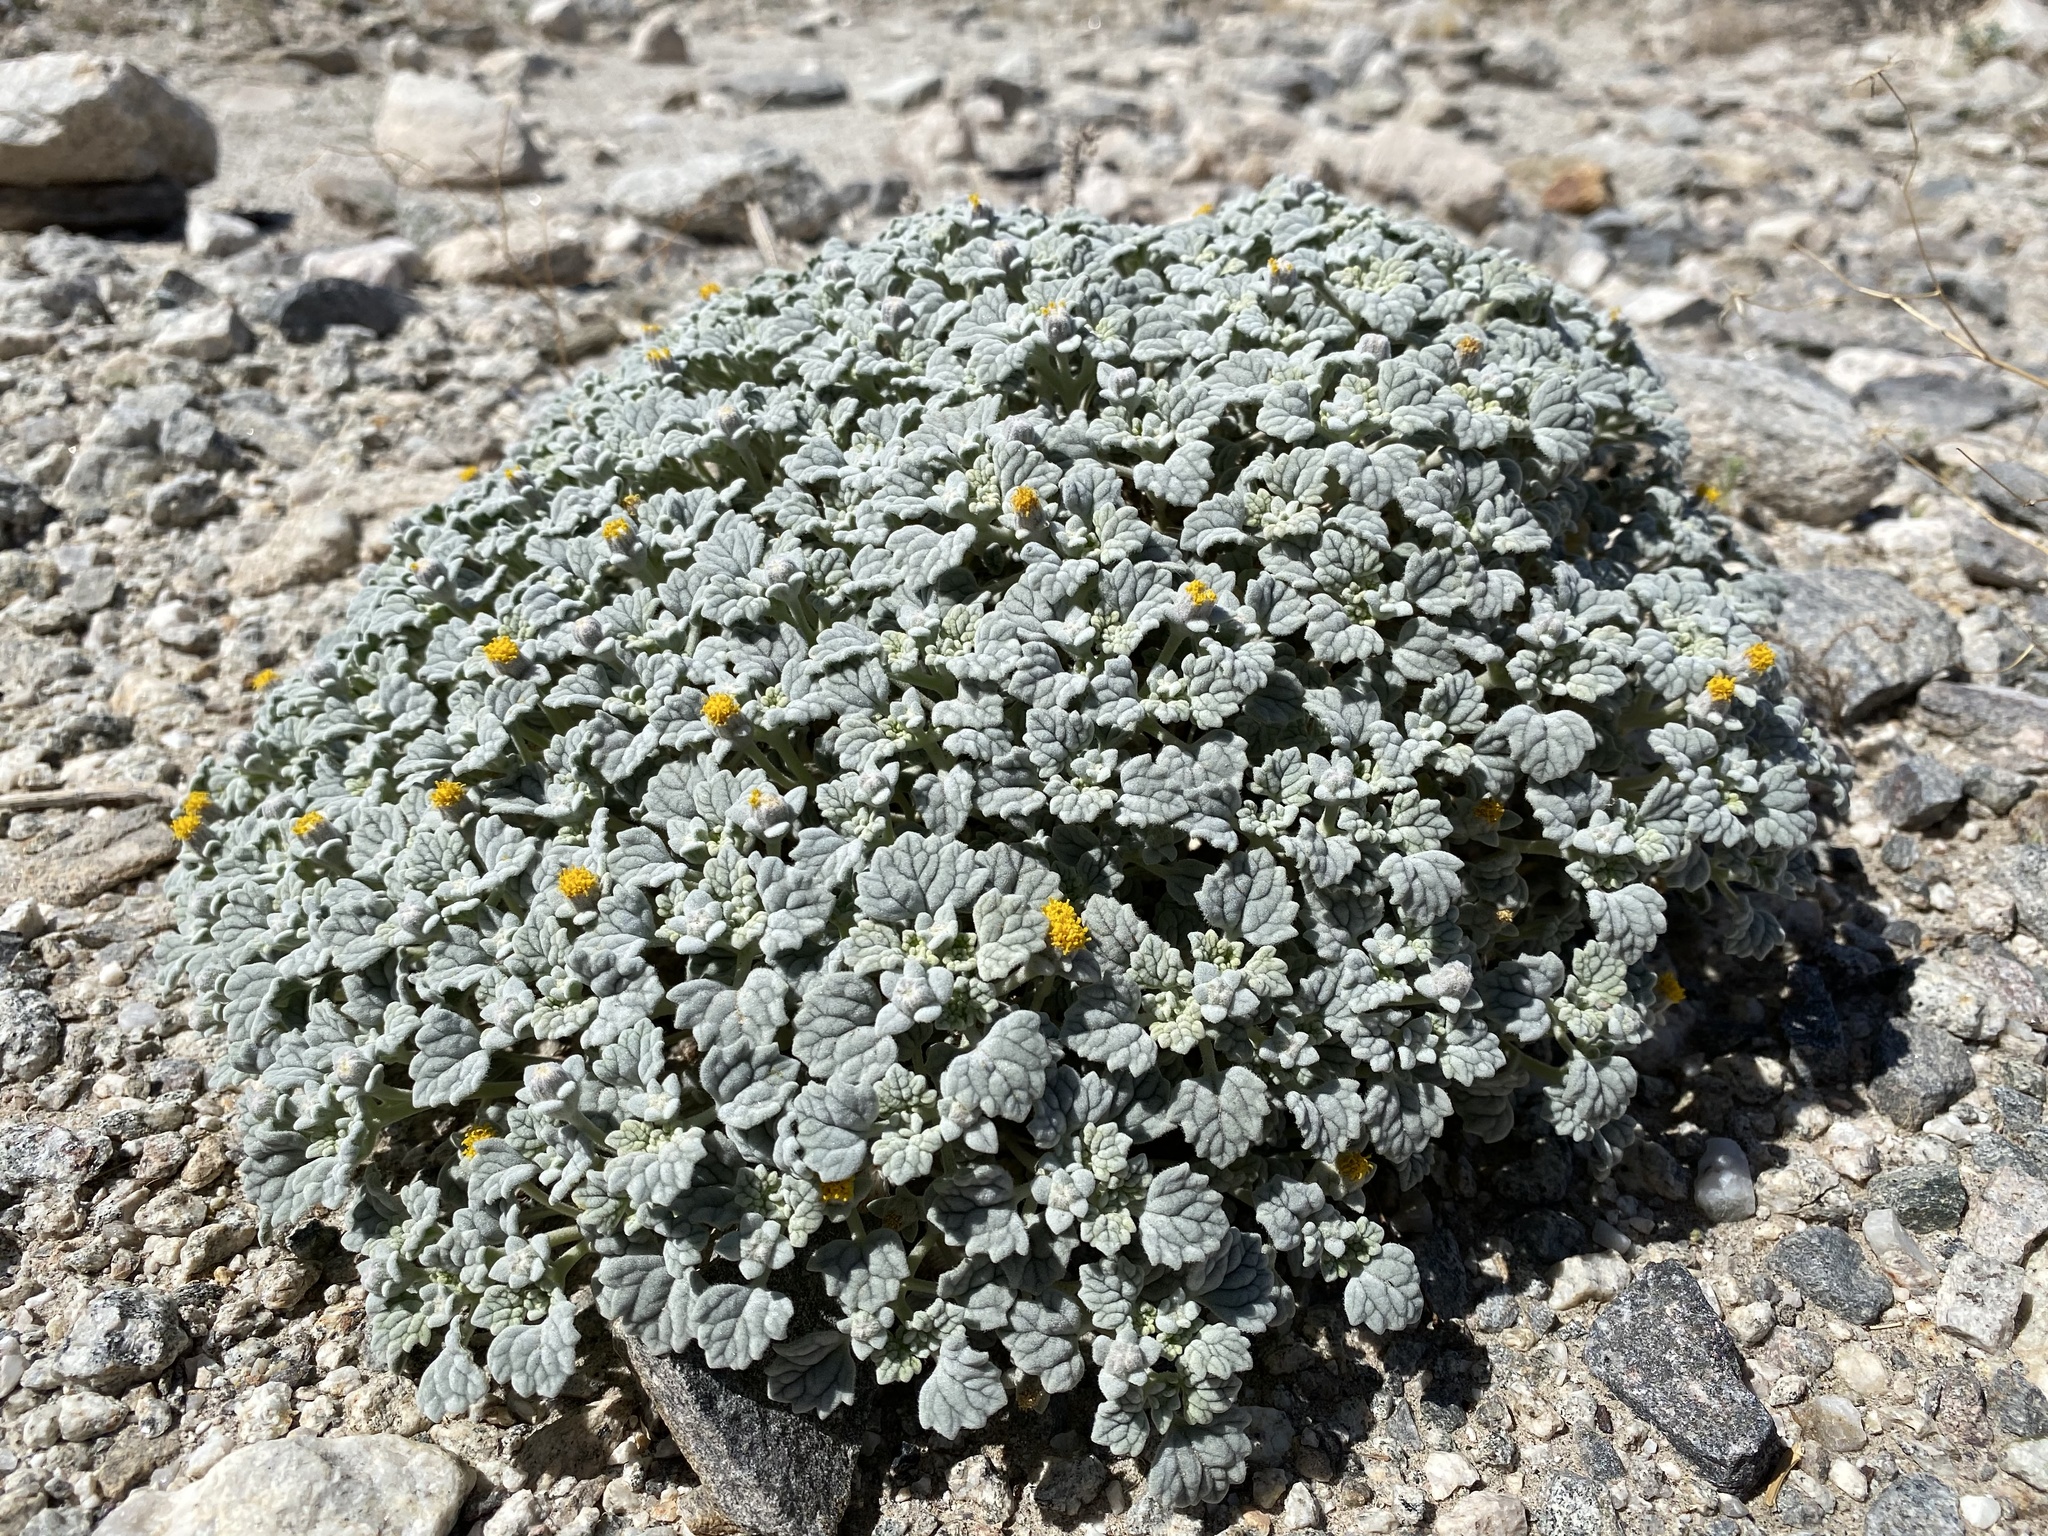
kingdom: Plantae
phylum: Tracheophyta
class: Magnoliopsida
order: Asterales
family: Asteraceae
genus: Psathyrotes
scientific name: Psathyrotes ramosissima
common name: Turtleback
